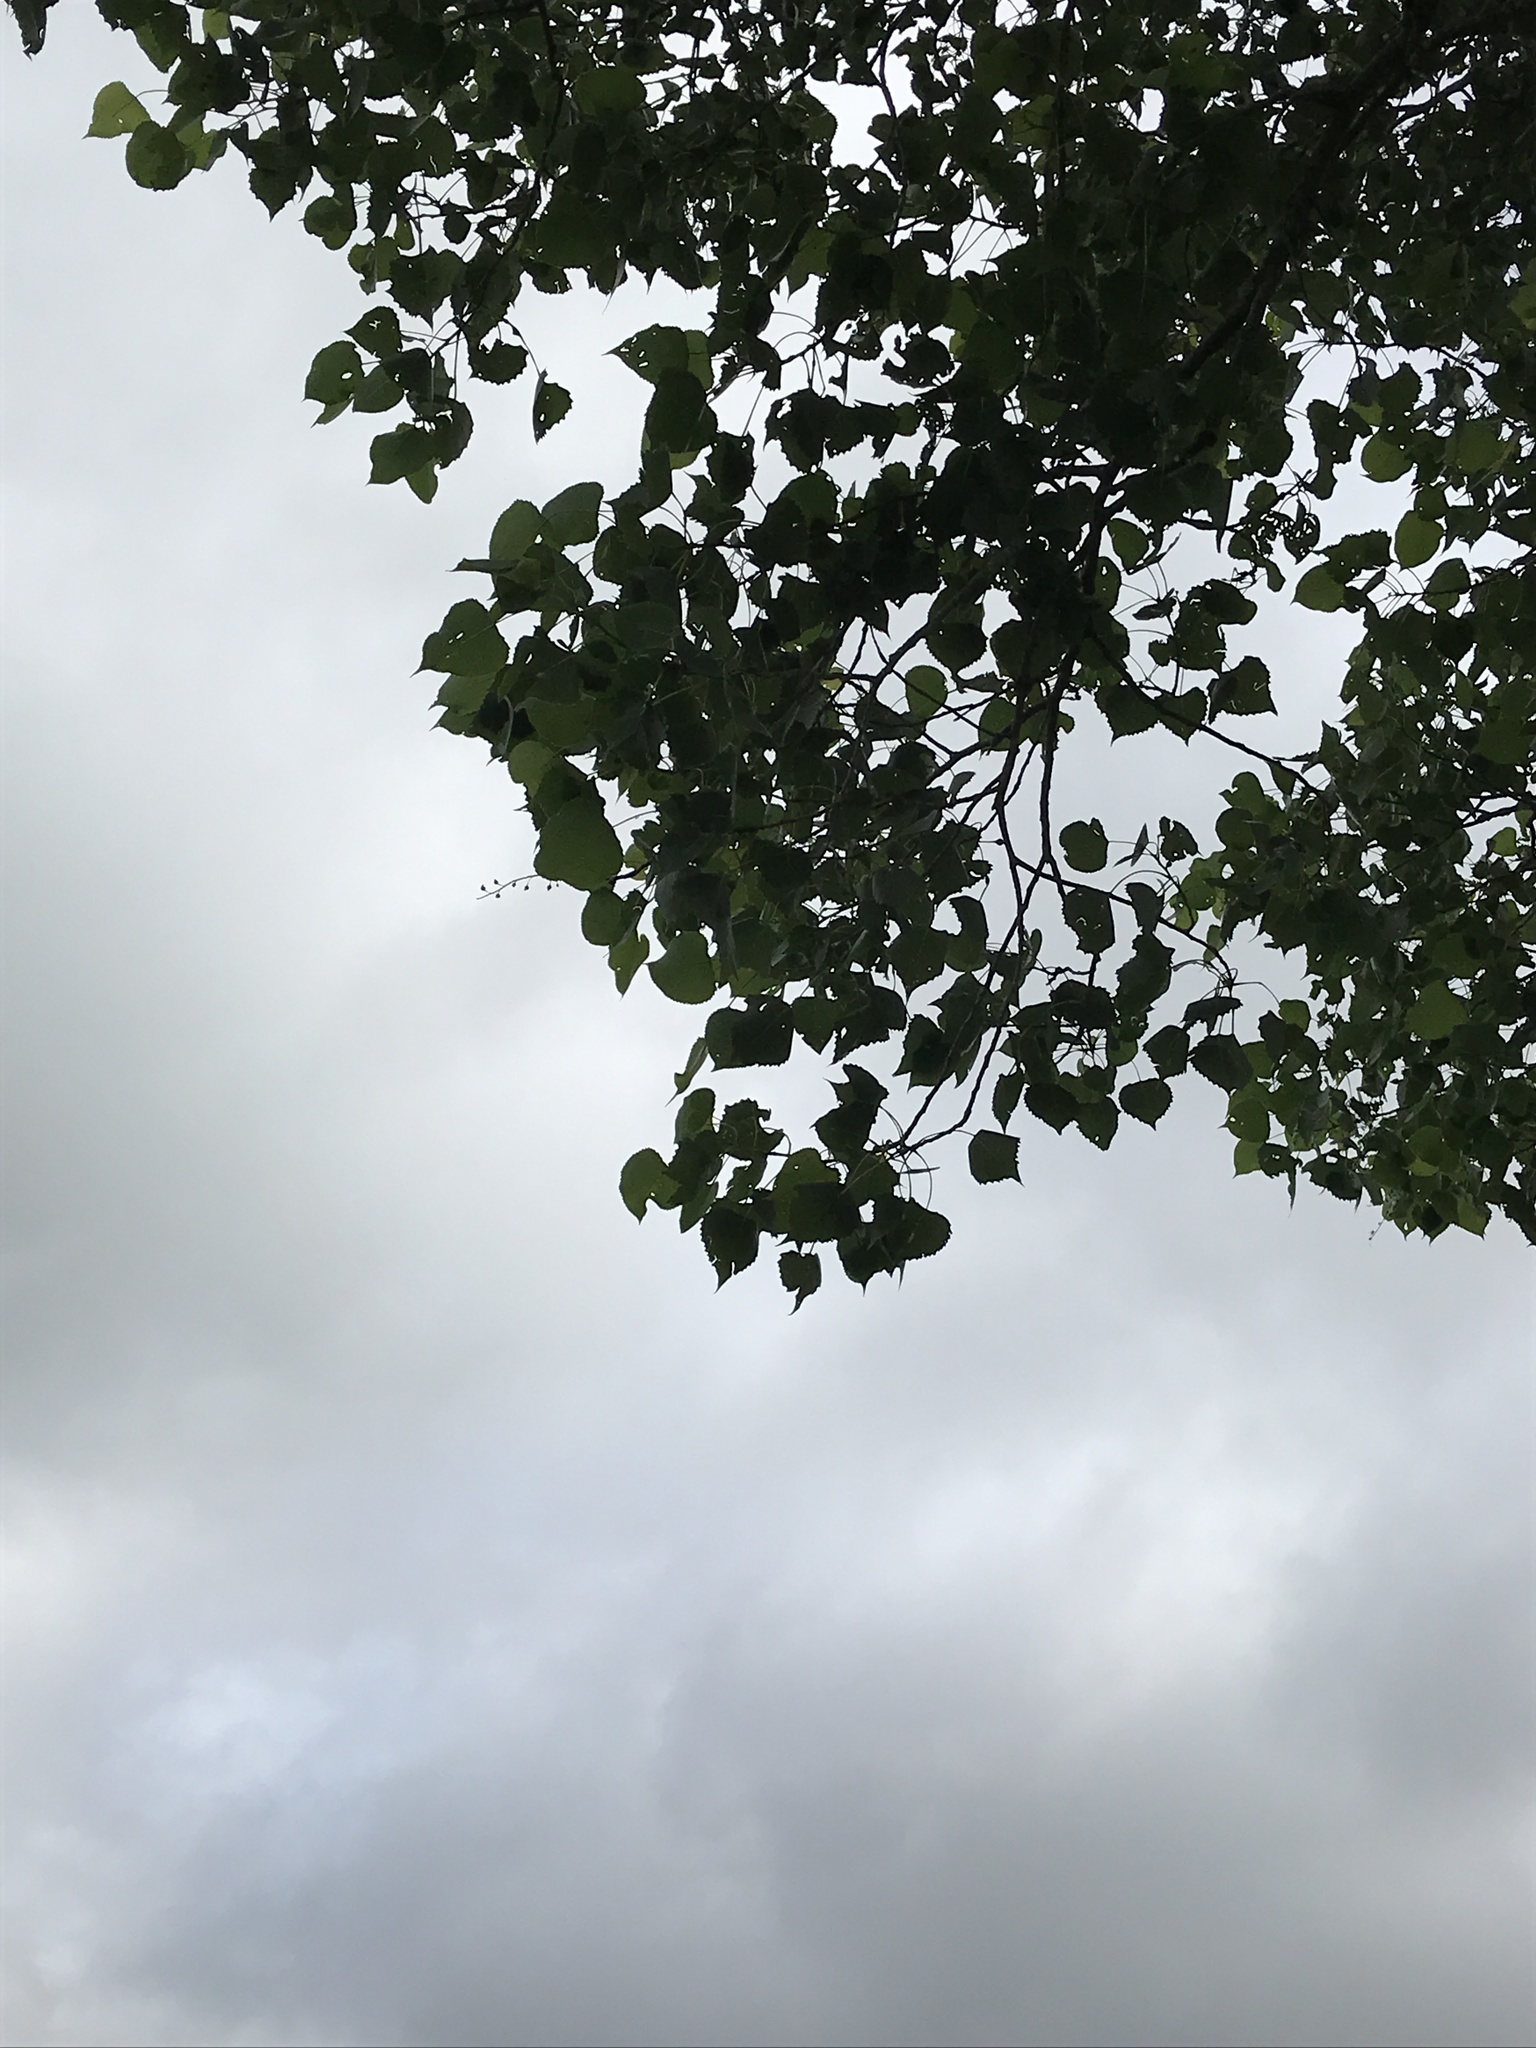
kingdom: Plantae
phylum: Tracheophyta
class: Magnoliopsida
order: Malpighiales
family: Salicaceae
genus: Populus
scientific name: Populus deltoides
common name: Eastern cottonwood
